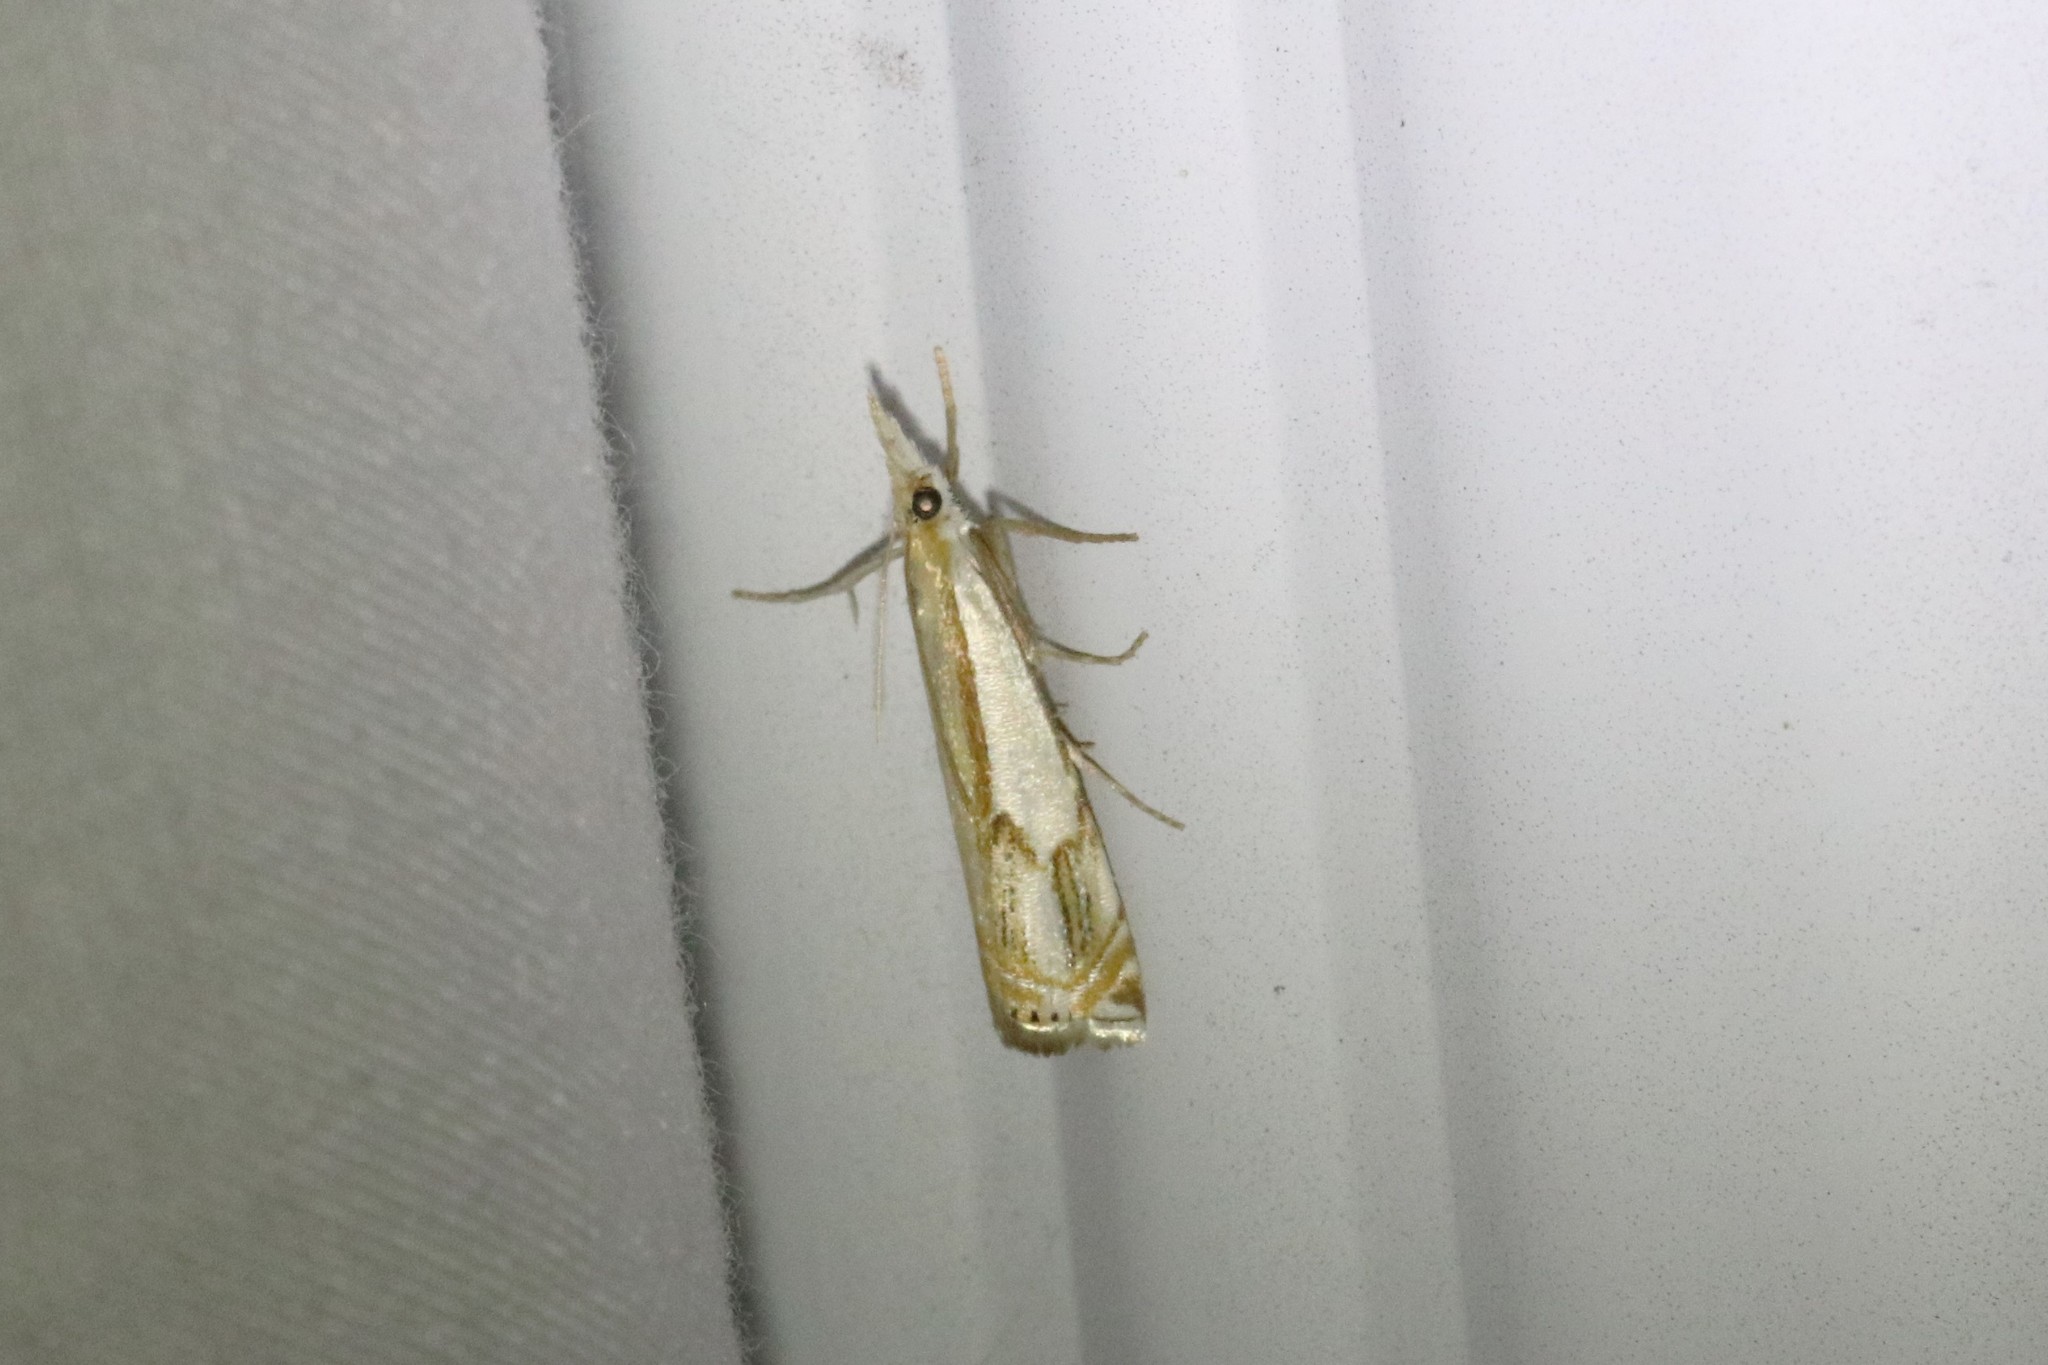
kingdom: Animalia
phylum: Arthropoda
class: Insecta
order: Lepidoptera
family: Crambidae
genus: Crambus
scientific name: Crambus agitatellus
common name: Double-banded grass-veneer
